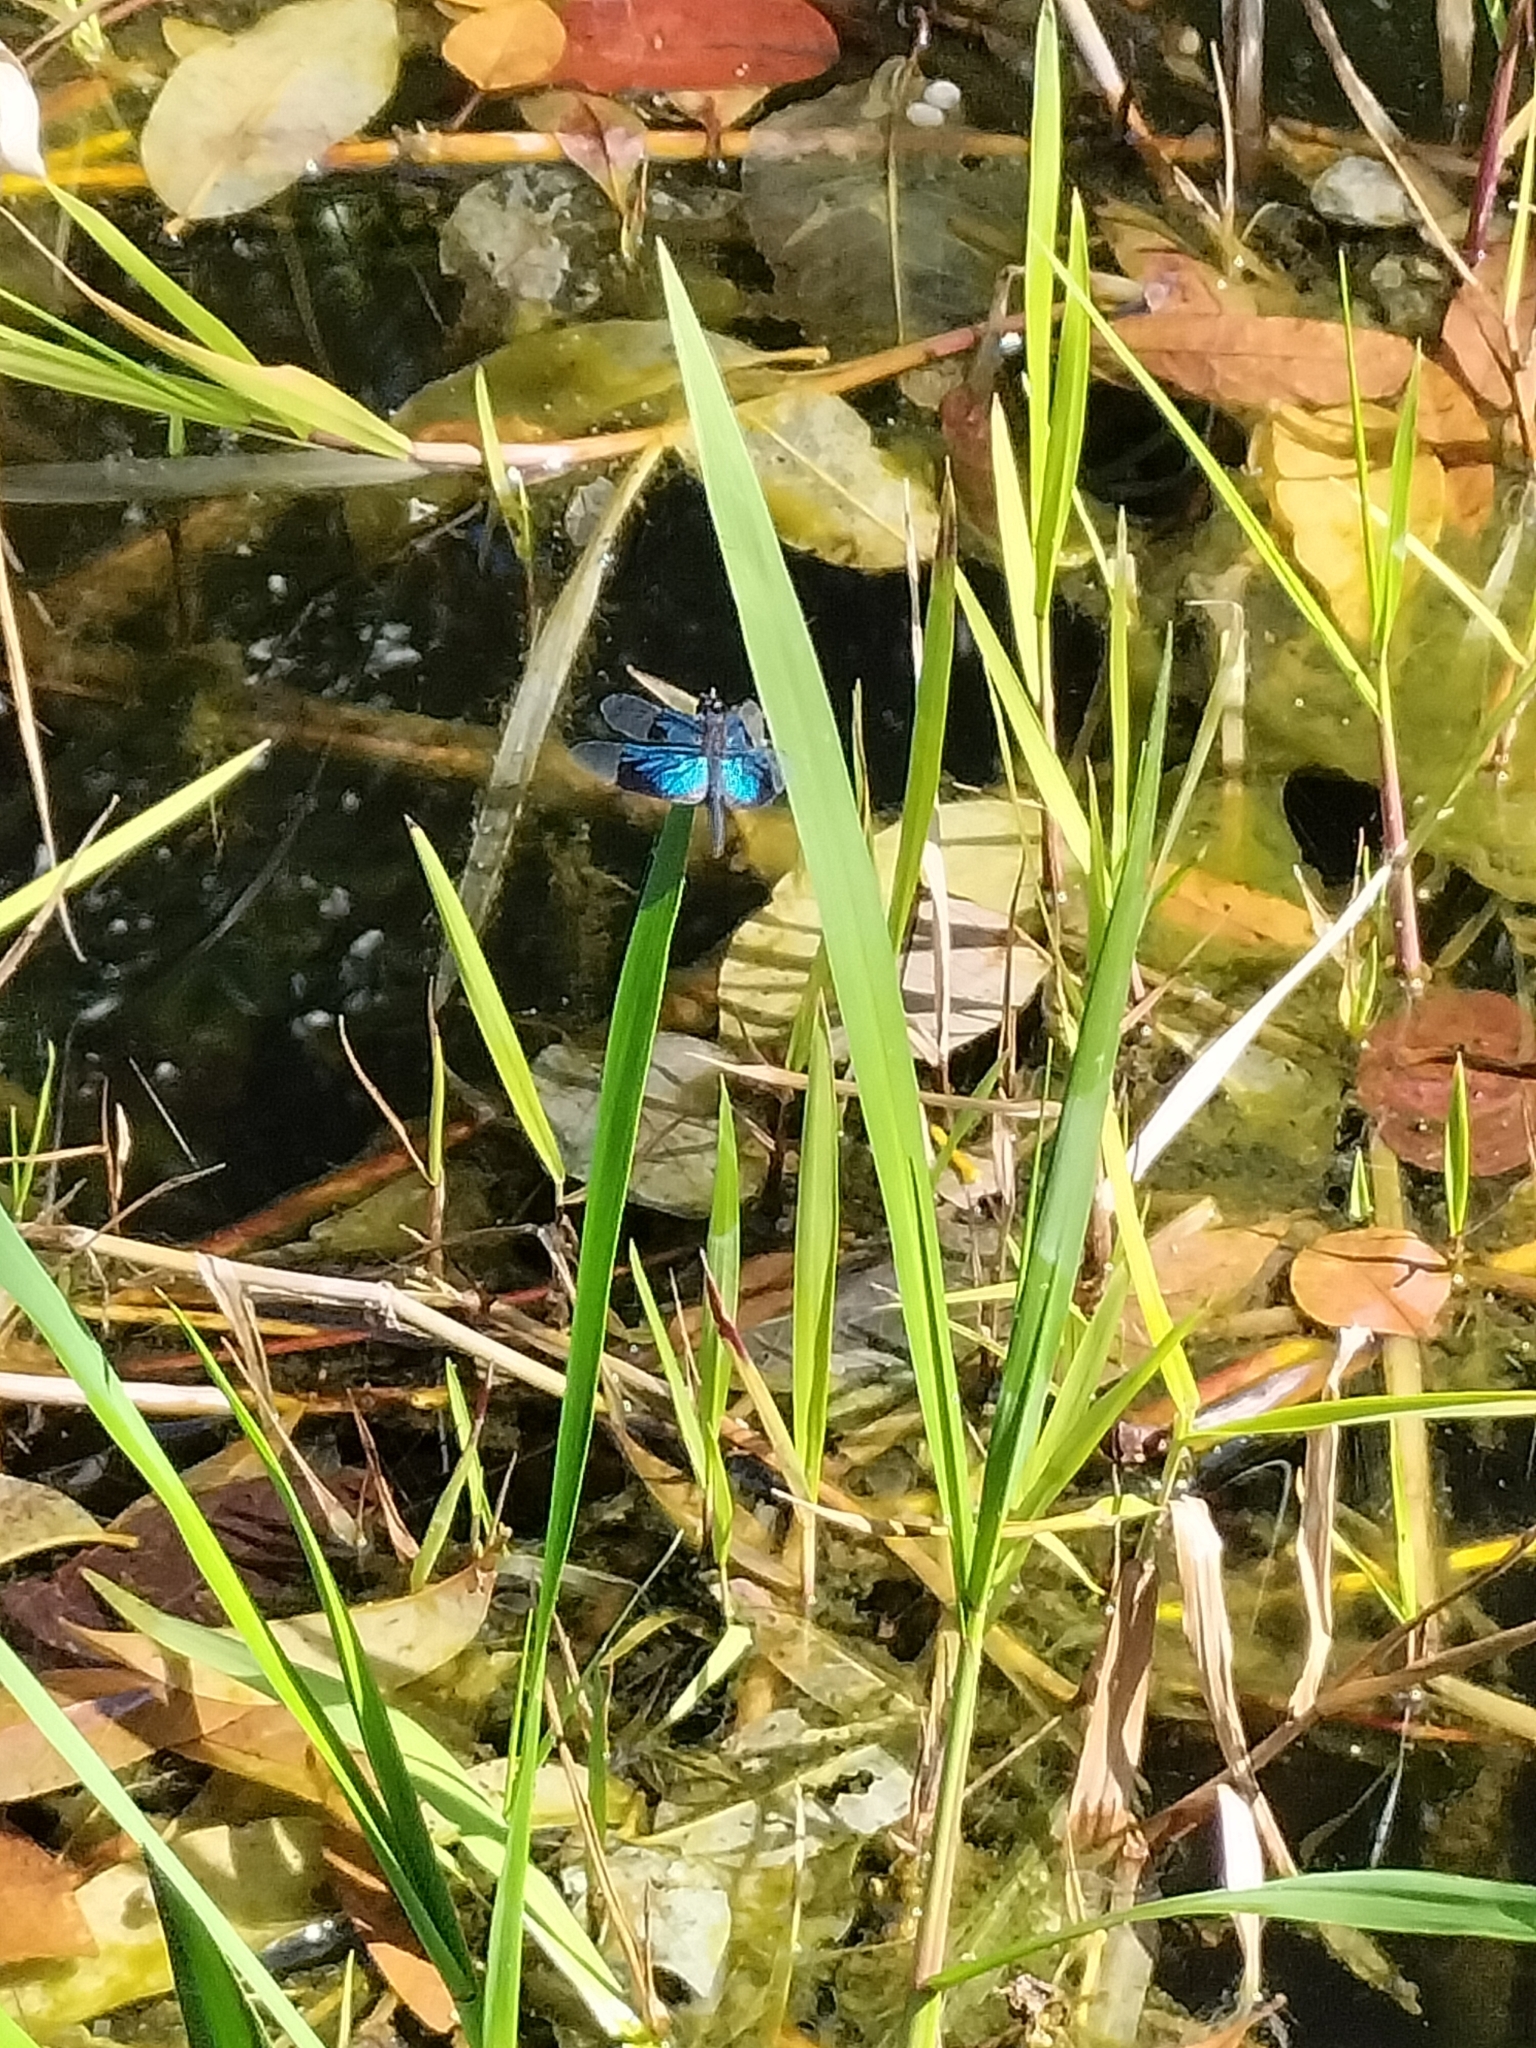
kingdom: Animalia
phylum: Arthropoda
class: Insecta
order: Odonata
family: Libellulidae
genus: Rhyothemis
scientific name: Rhyothemis resplendens
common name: Jewel flutterer
